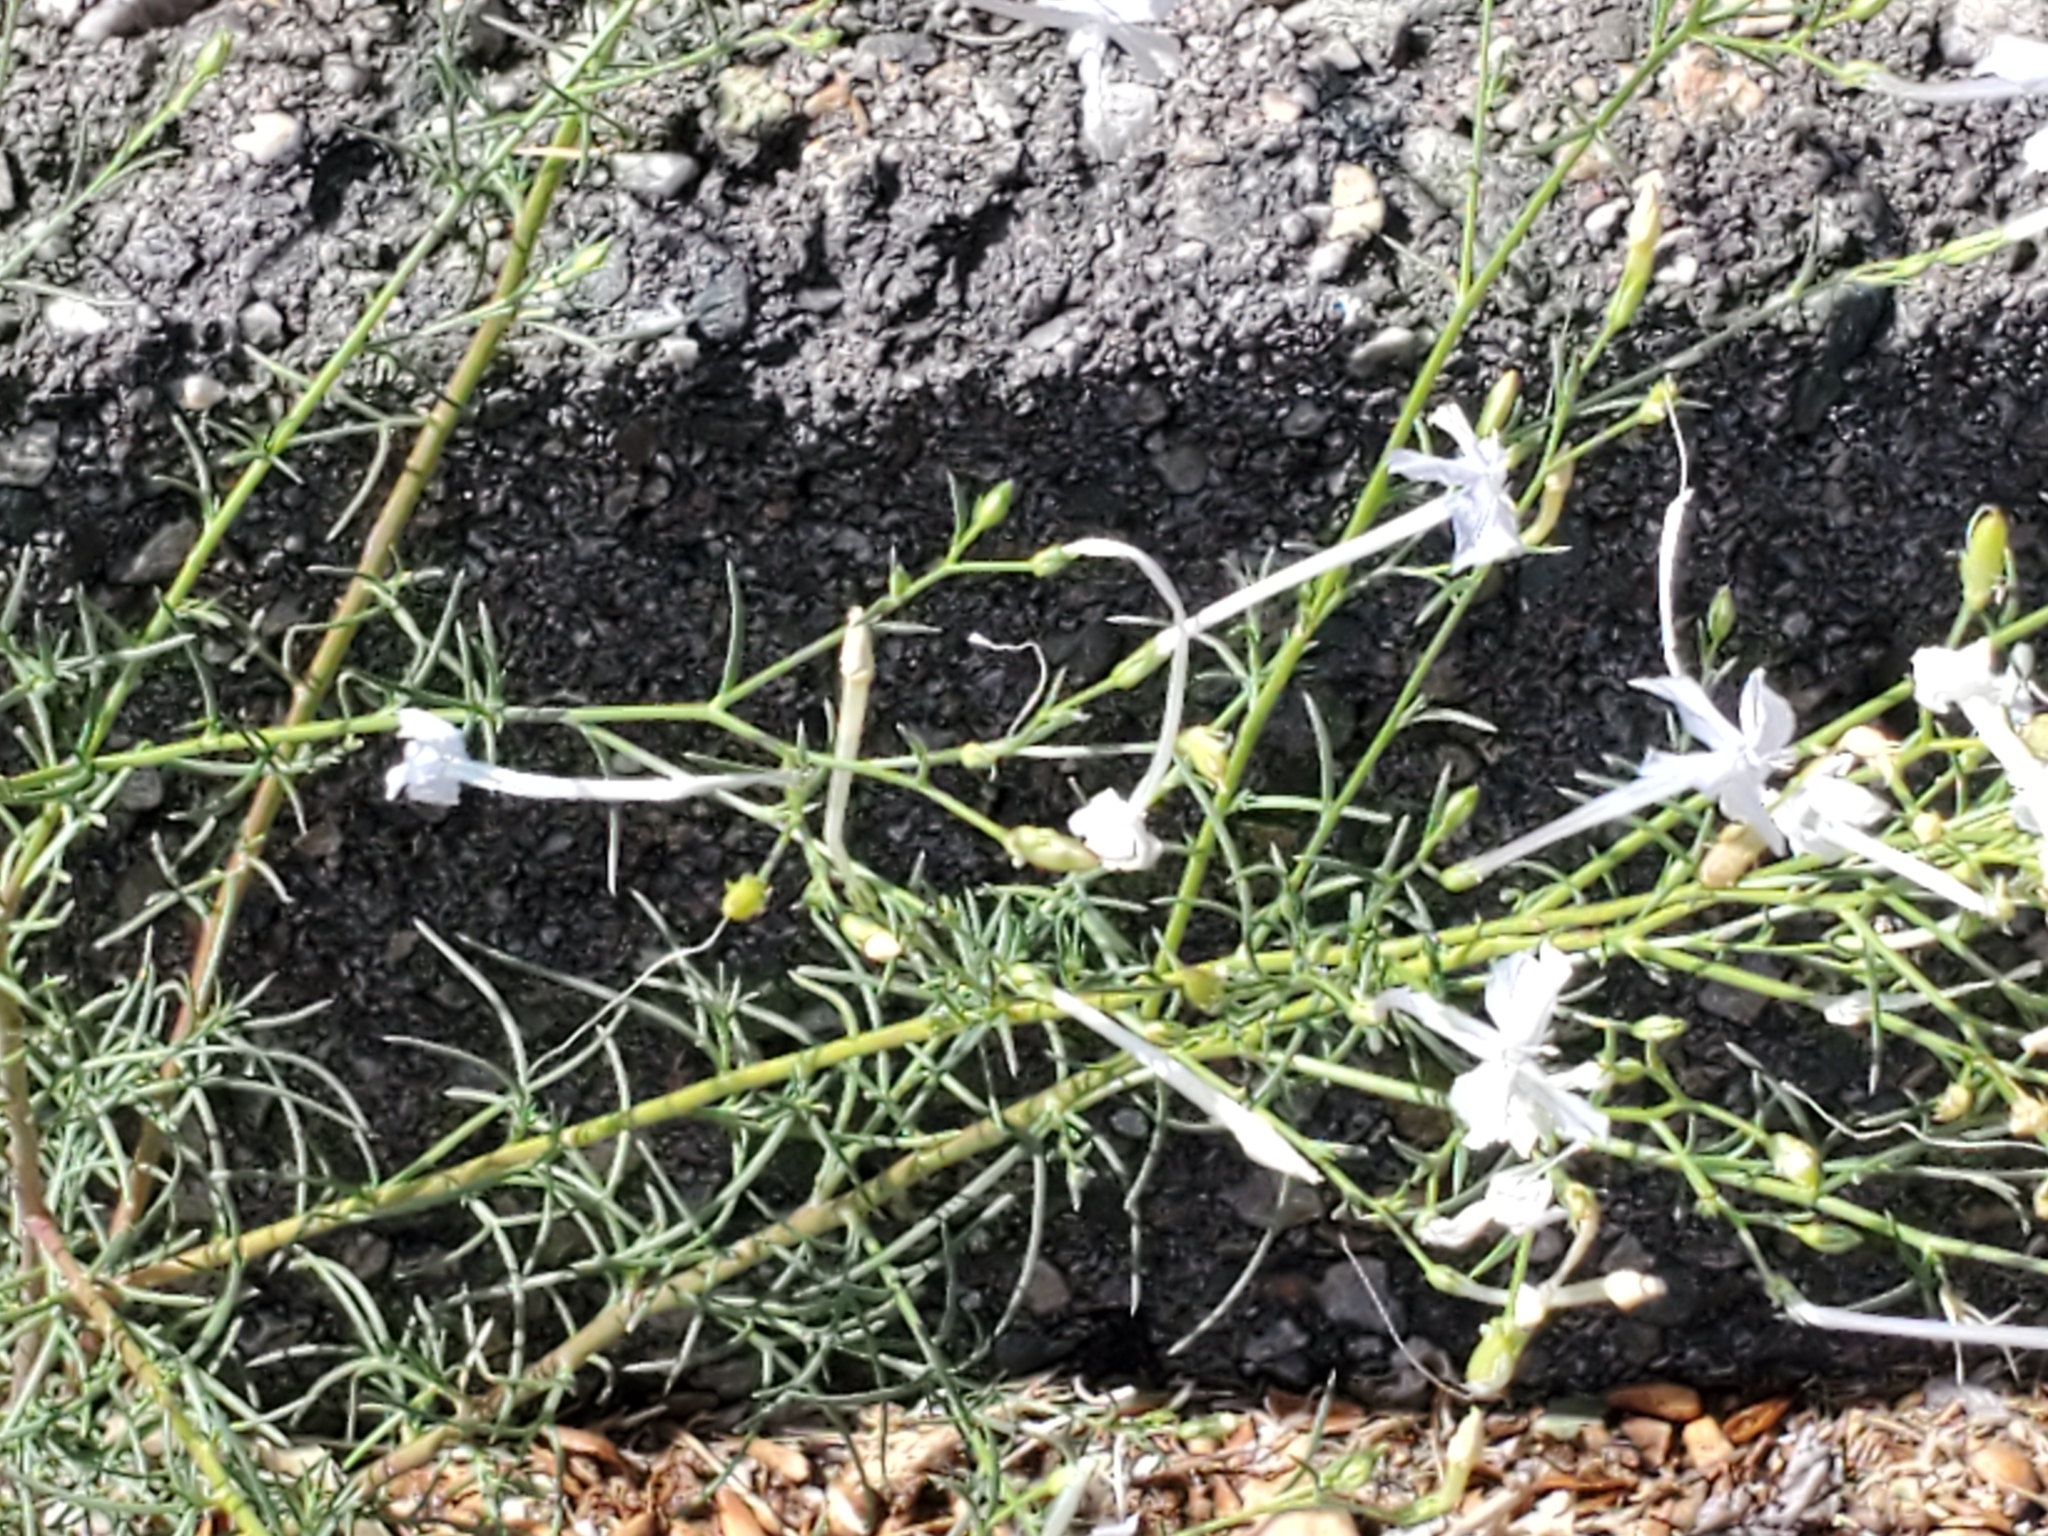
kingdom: Plantae
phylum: Tracheophyta
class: Magnoliopsida
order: Ericales
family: Polemoniaceae
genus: Ipomopsis
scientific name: Ipomopsis longiflora
